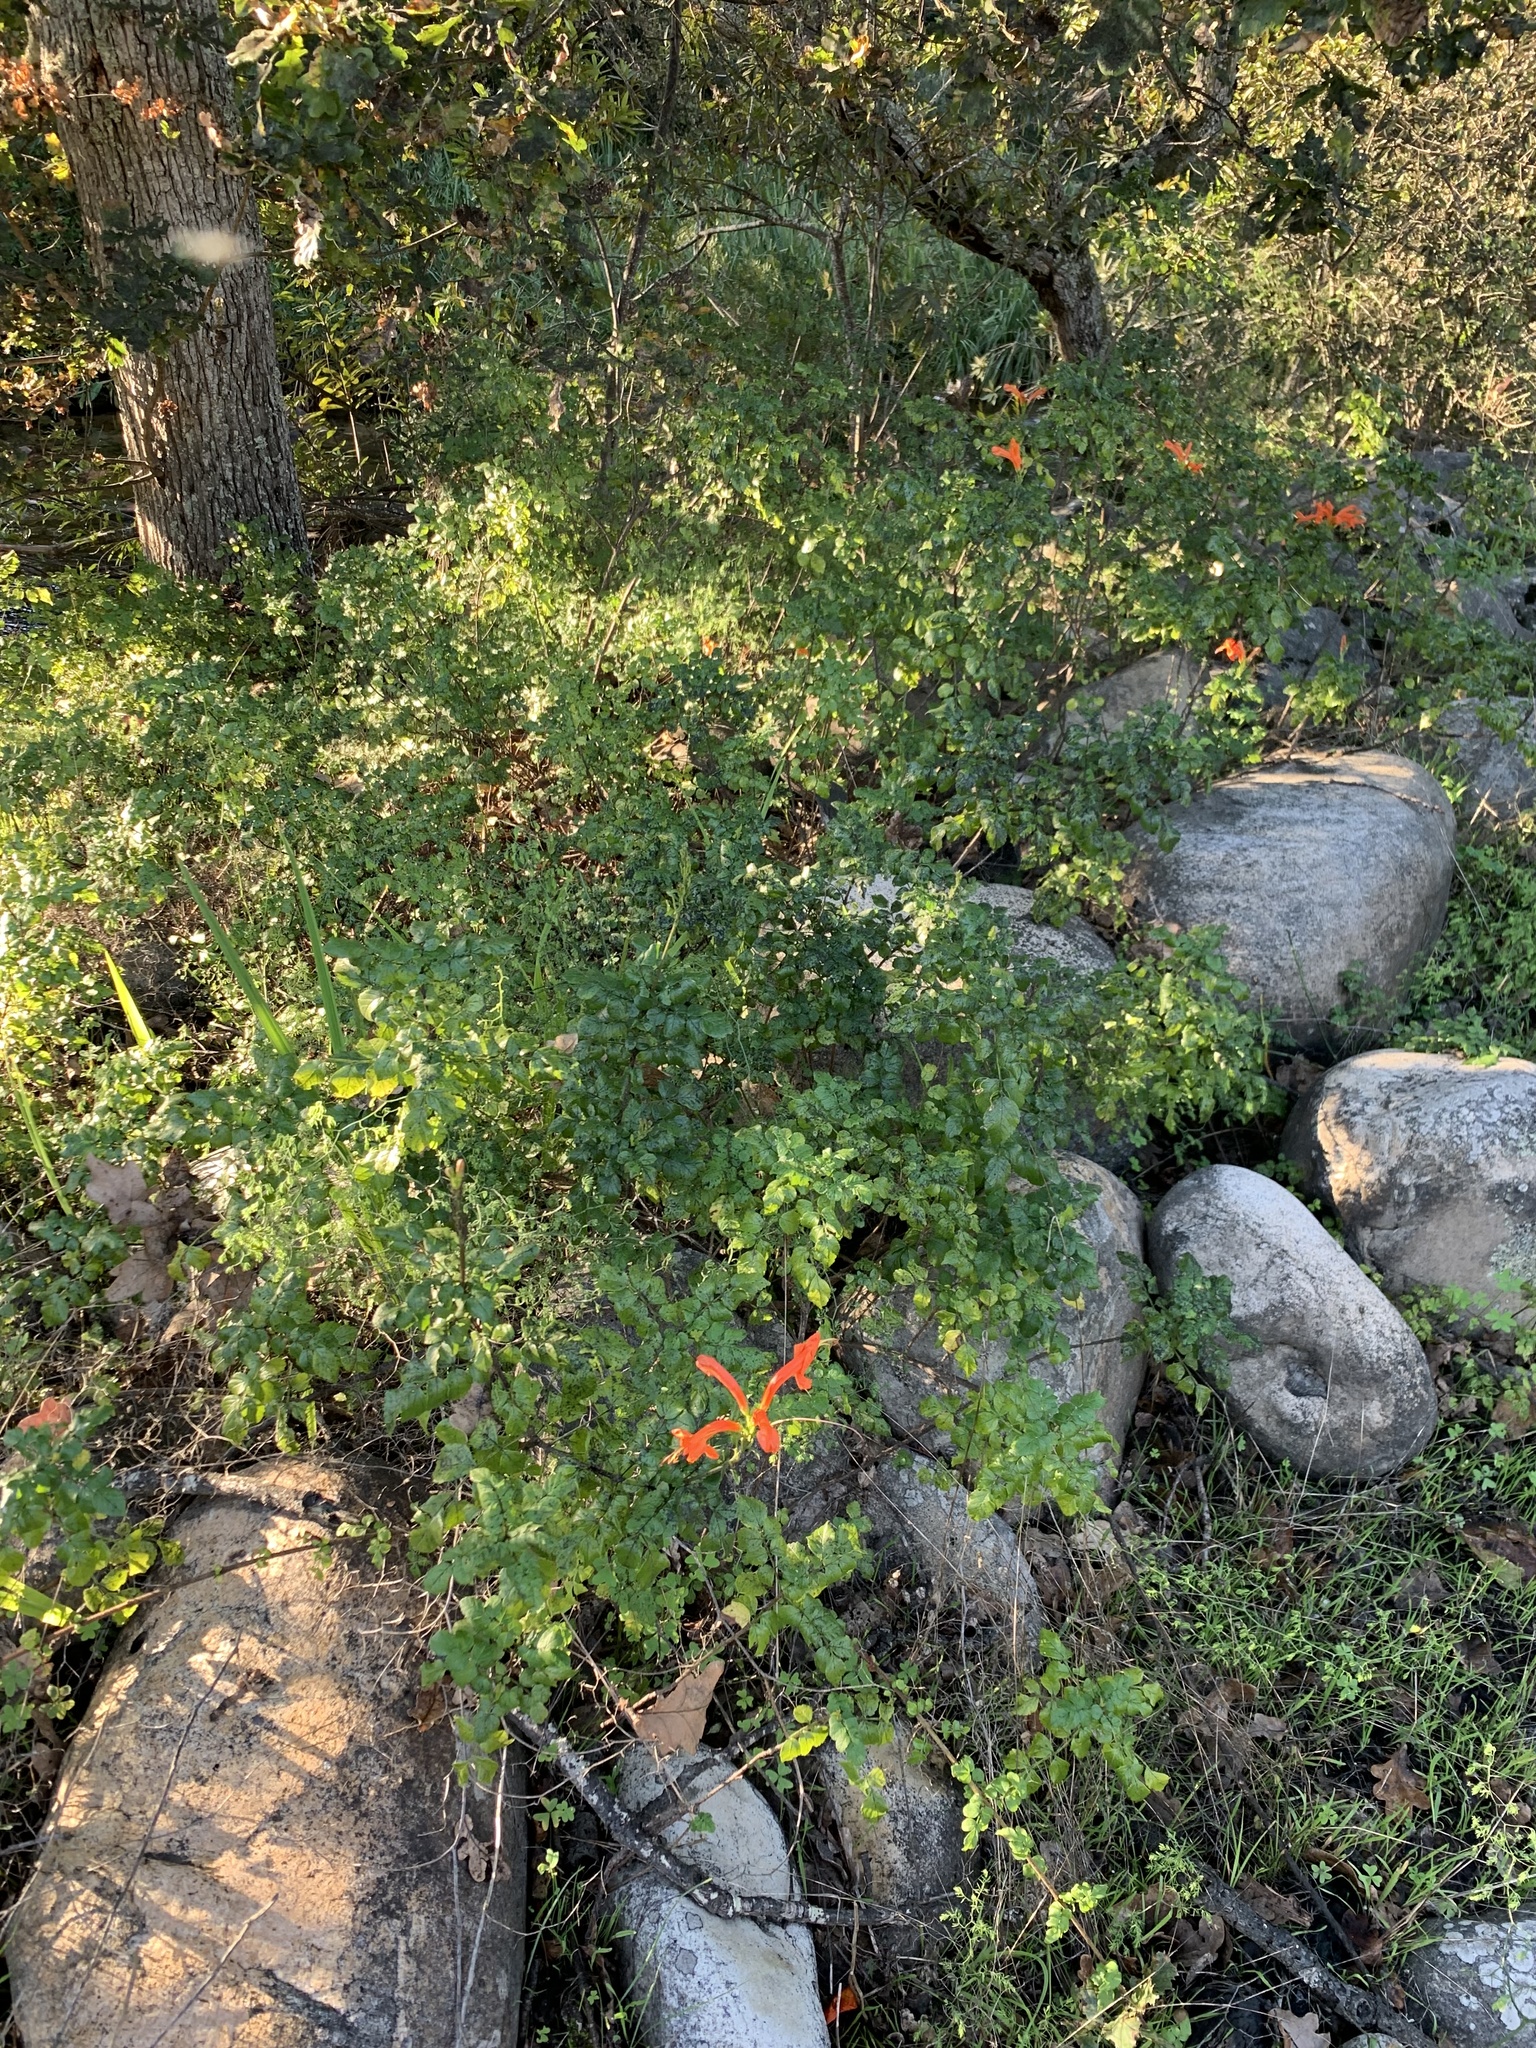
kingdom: Plantae
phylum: Tracheophyta
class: Magnoliopsida
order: Lamiales
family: Bignoniaceae
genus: Tecomaria
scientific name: Tecomaria capensis
